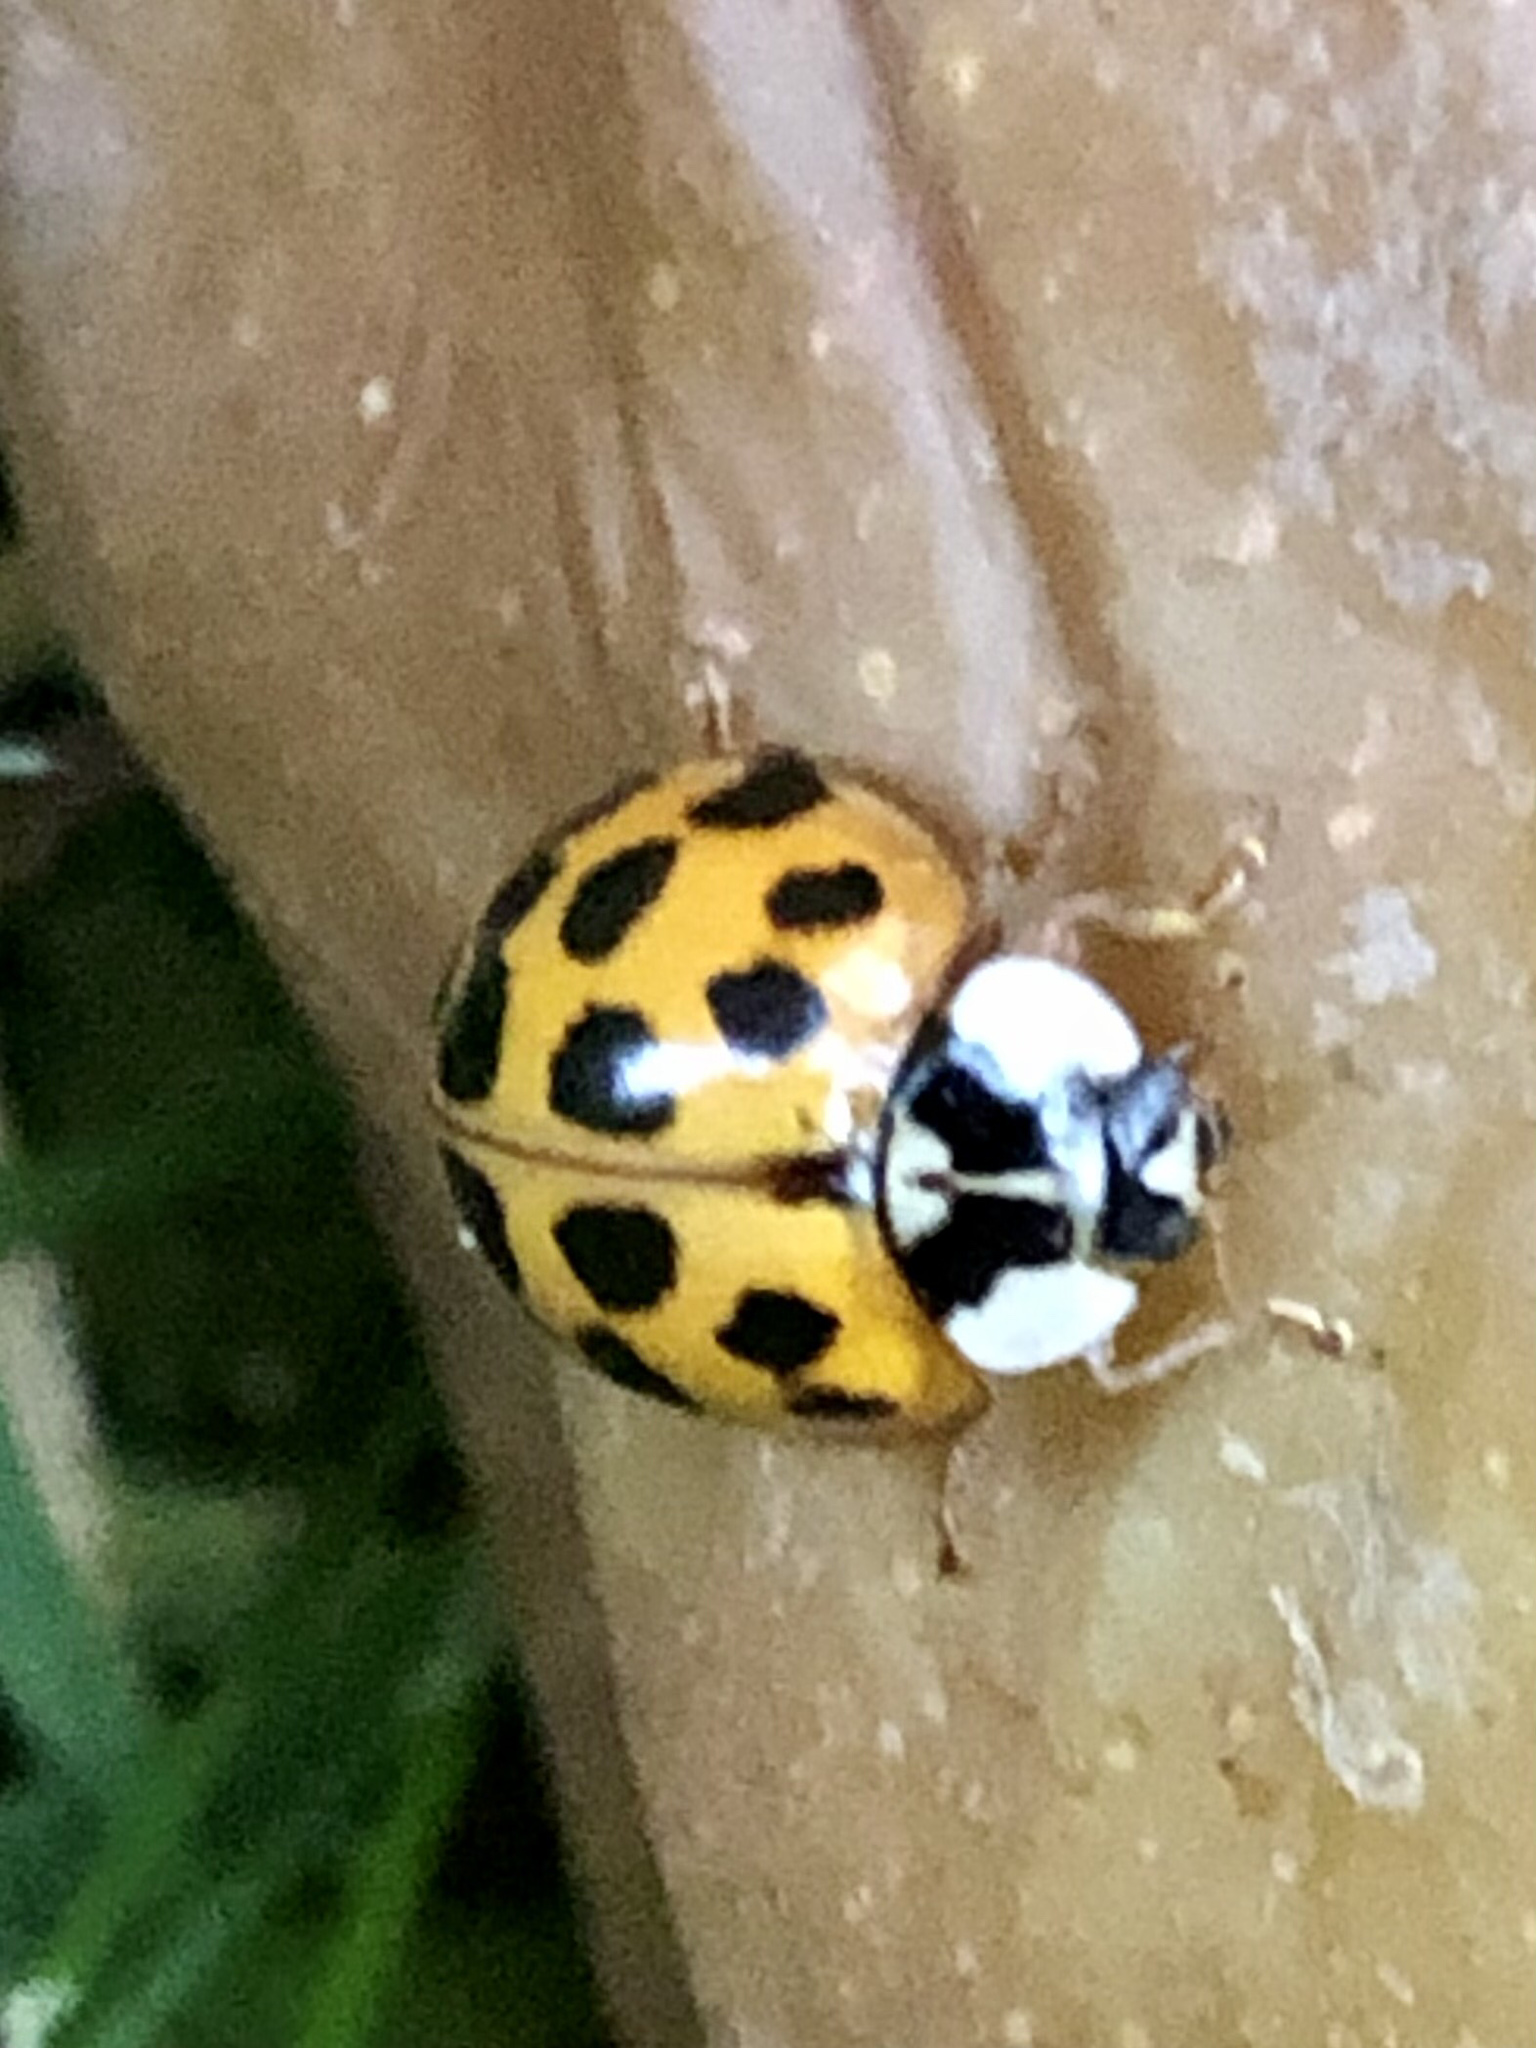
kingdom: Animalia
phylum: Arthropoda
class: Insecta
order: Coleoptera
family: Coccinellidae
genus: Harmonia
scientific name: Harmonia axyridis
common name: Harlequin ladybird
